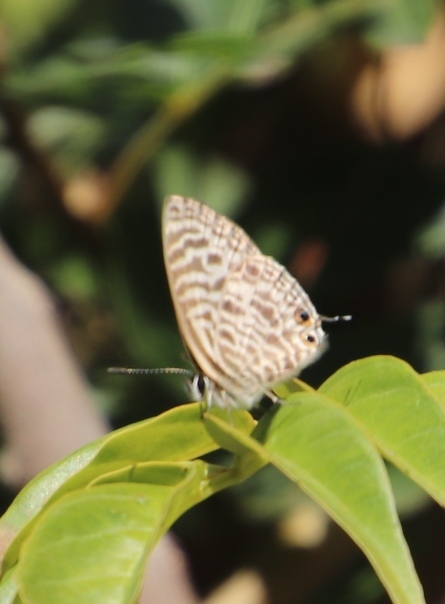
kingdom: Animalia
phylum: Arthropoda
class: Insecta
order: Lepidoptera
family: Lycaenidae
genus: Leptotes
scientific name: Leptotes
